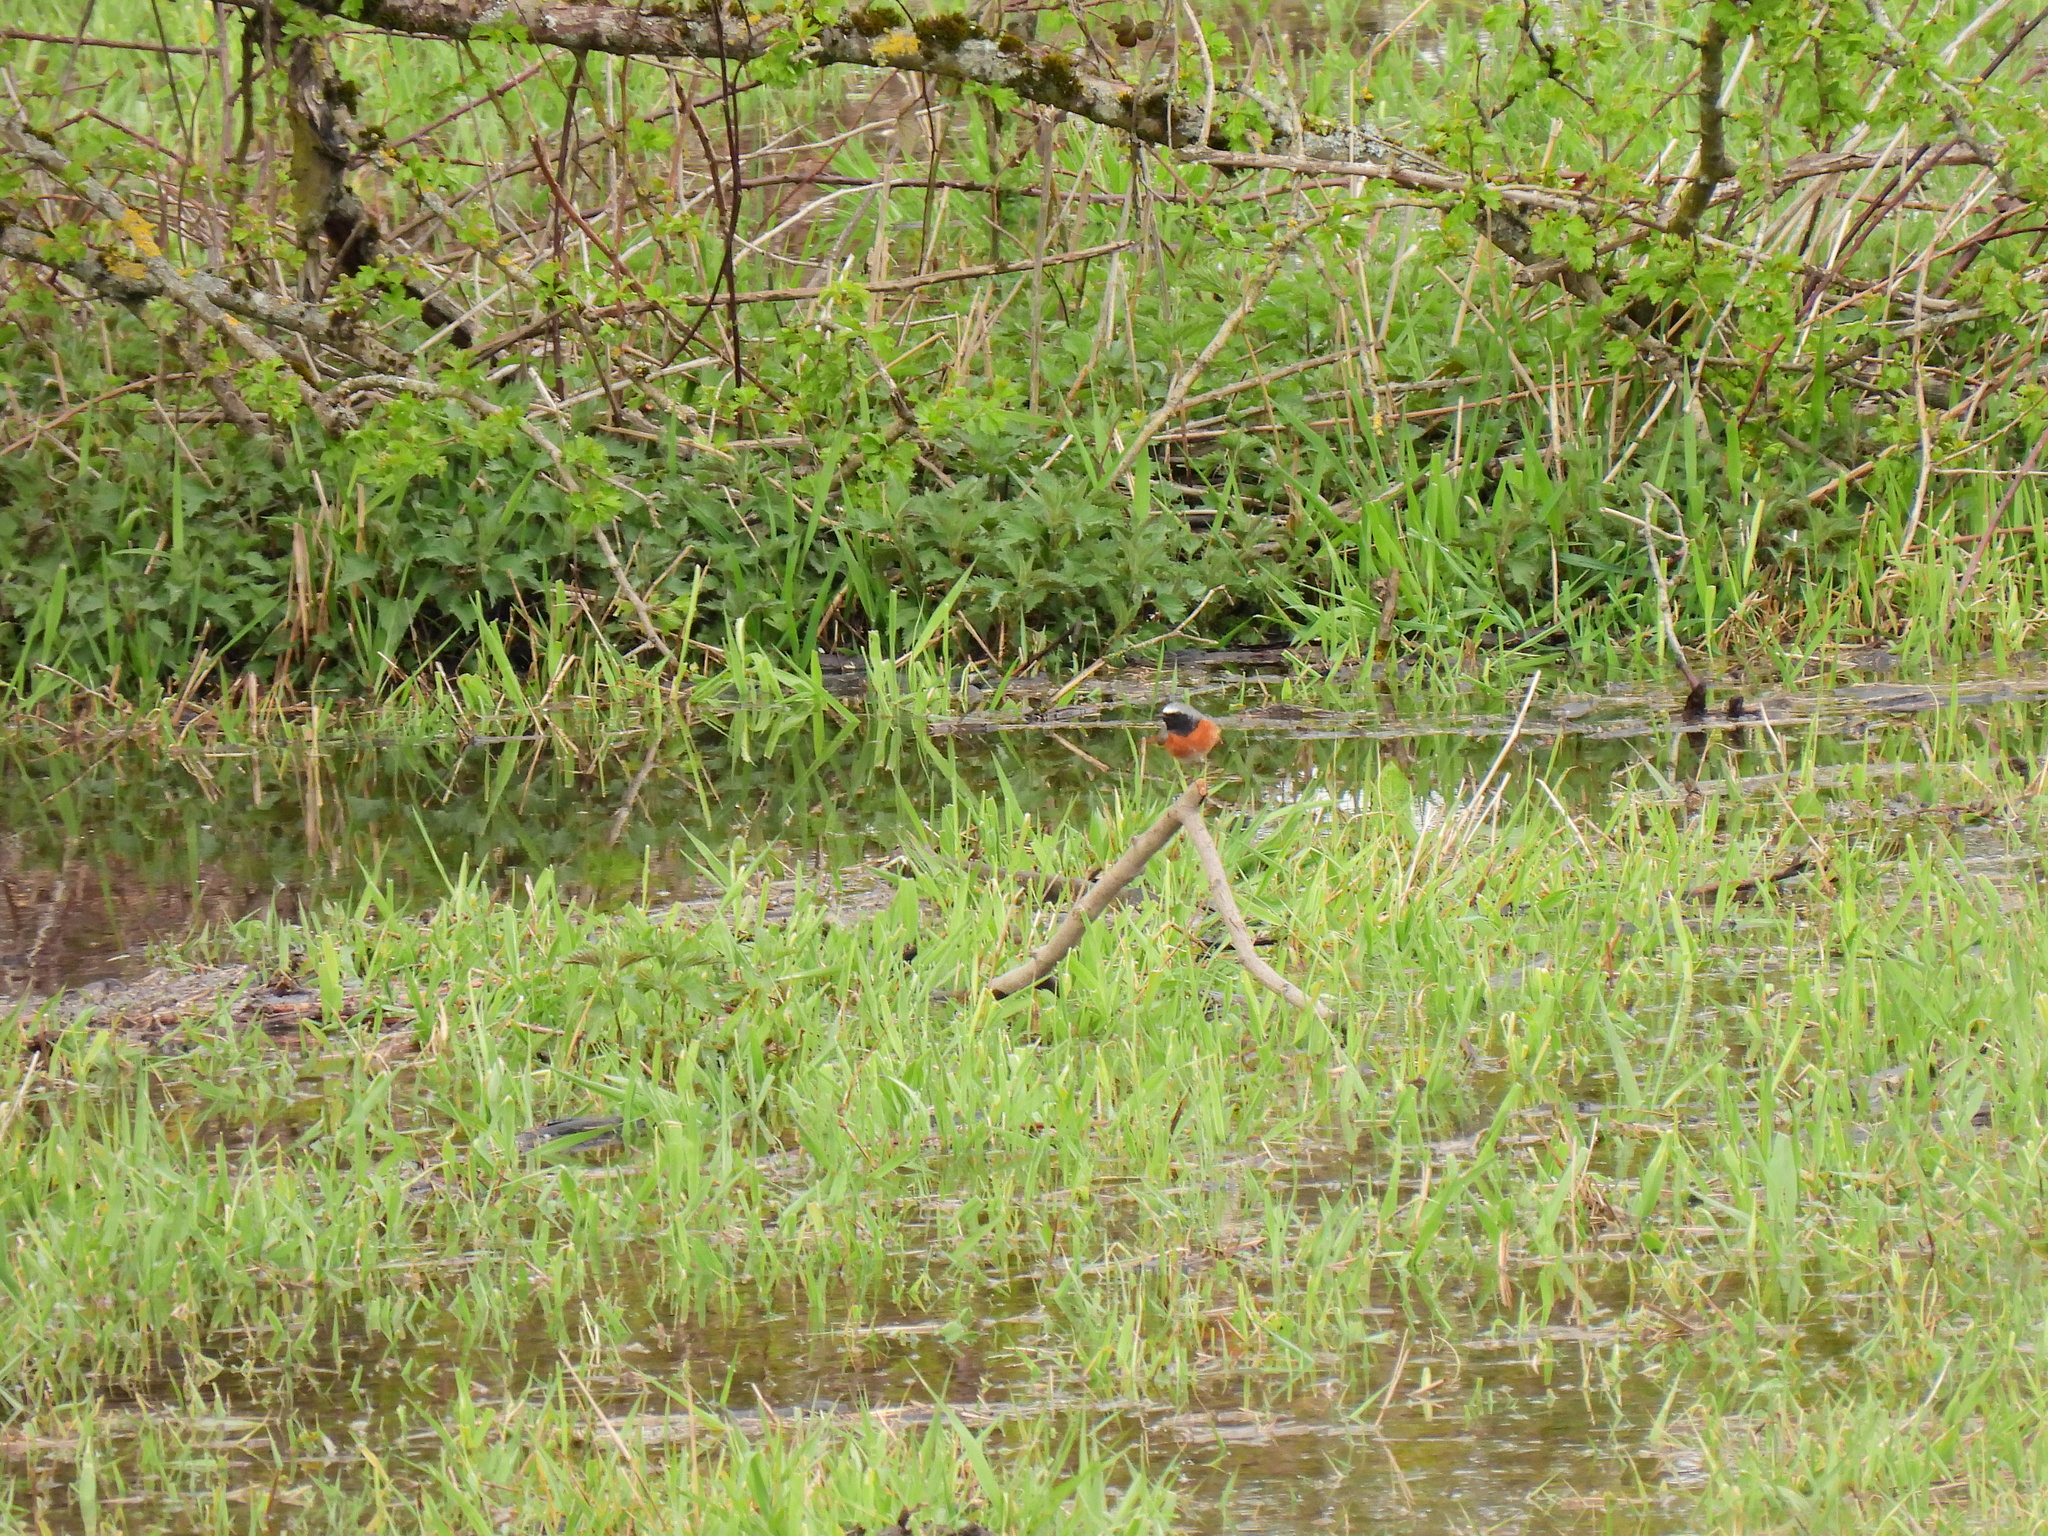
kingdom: Animalia
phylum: Chordata
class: Aves
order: Passeriformes
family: Muscicapidae
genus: Phoenicurus
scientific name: Phoenicurus phoenicurus
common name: Common redstart
